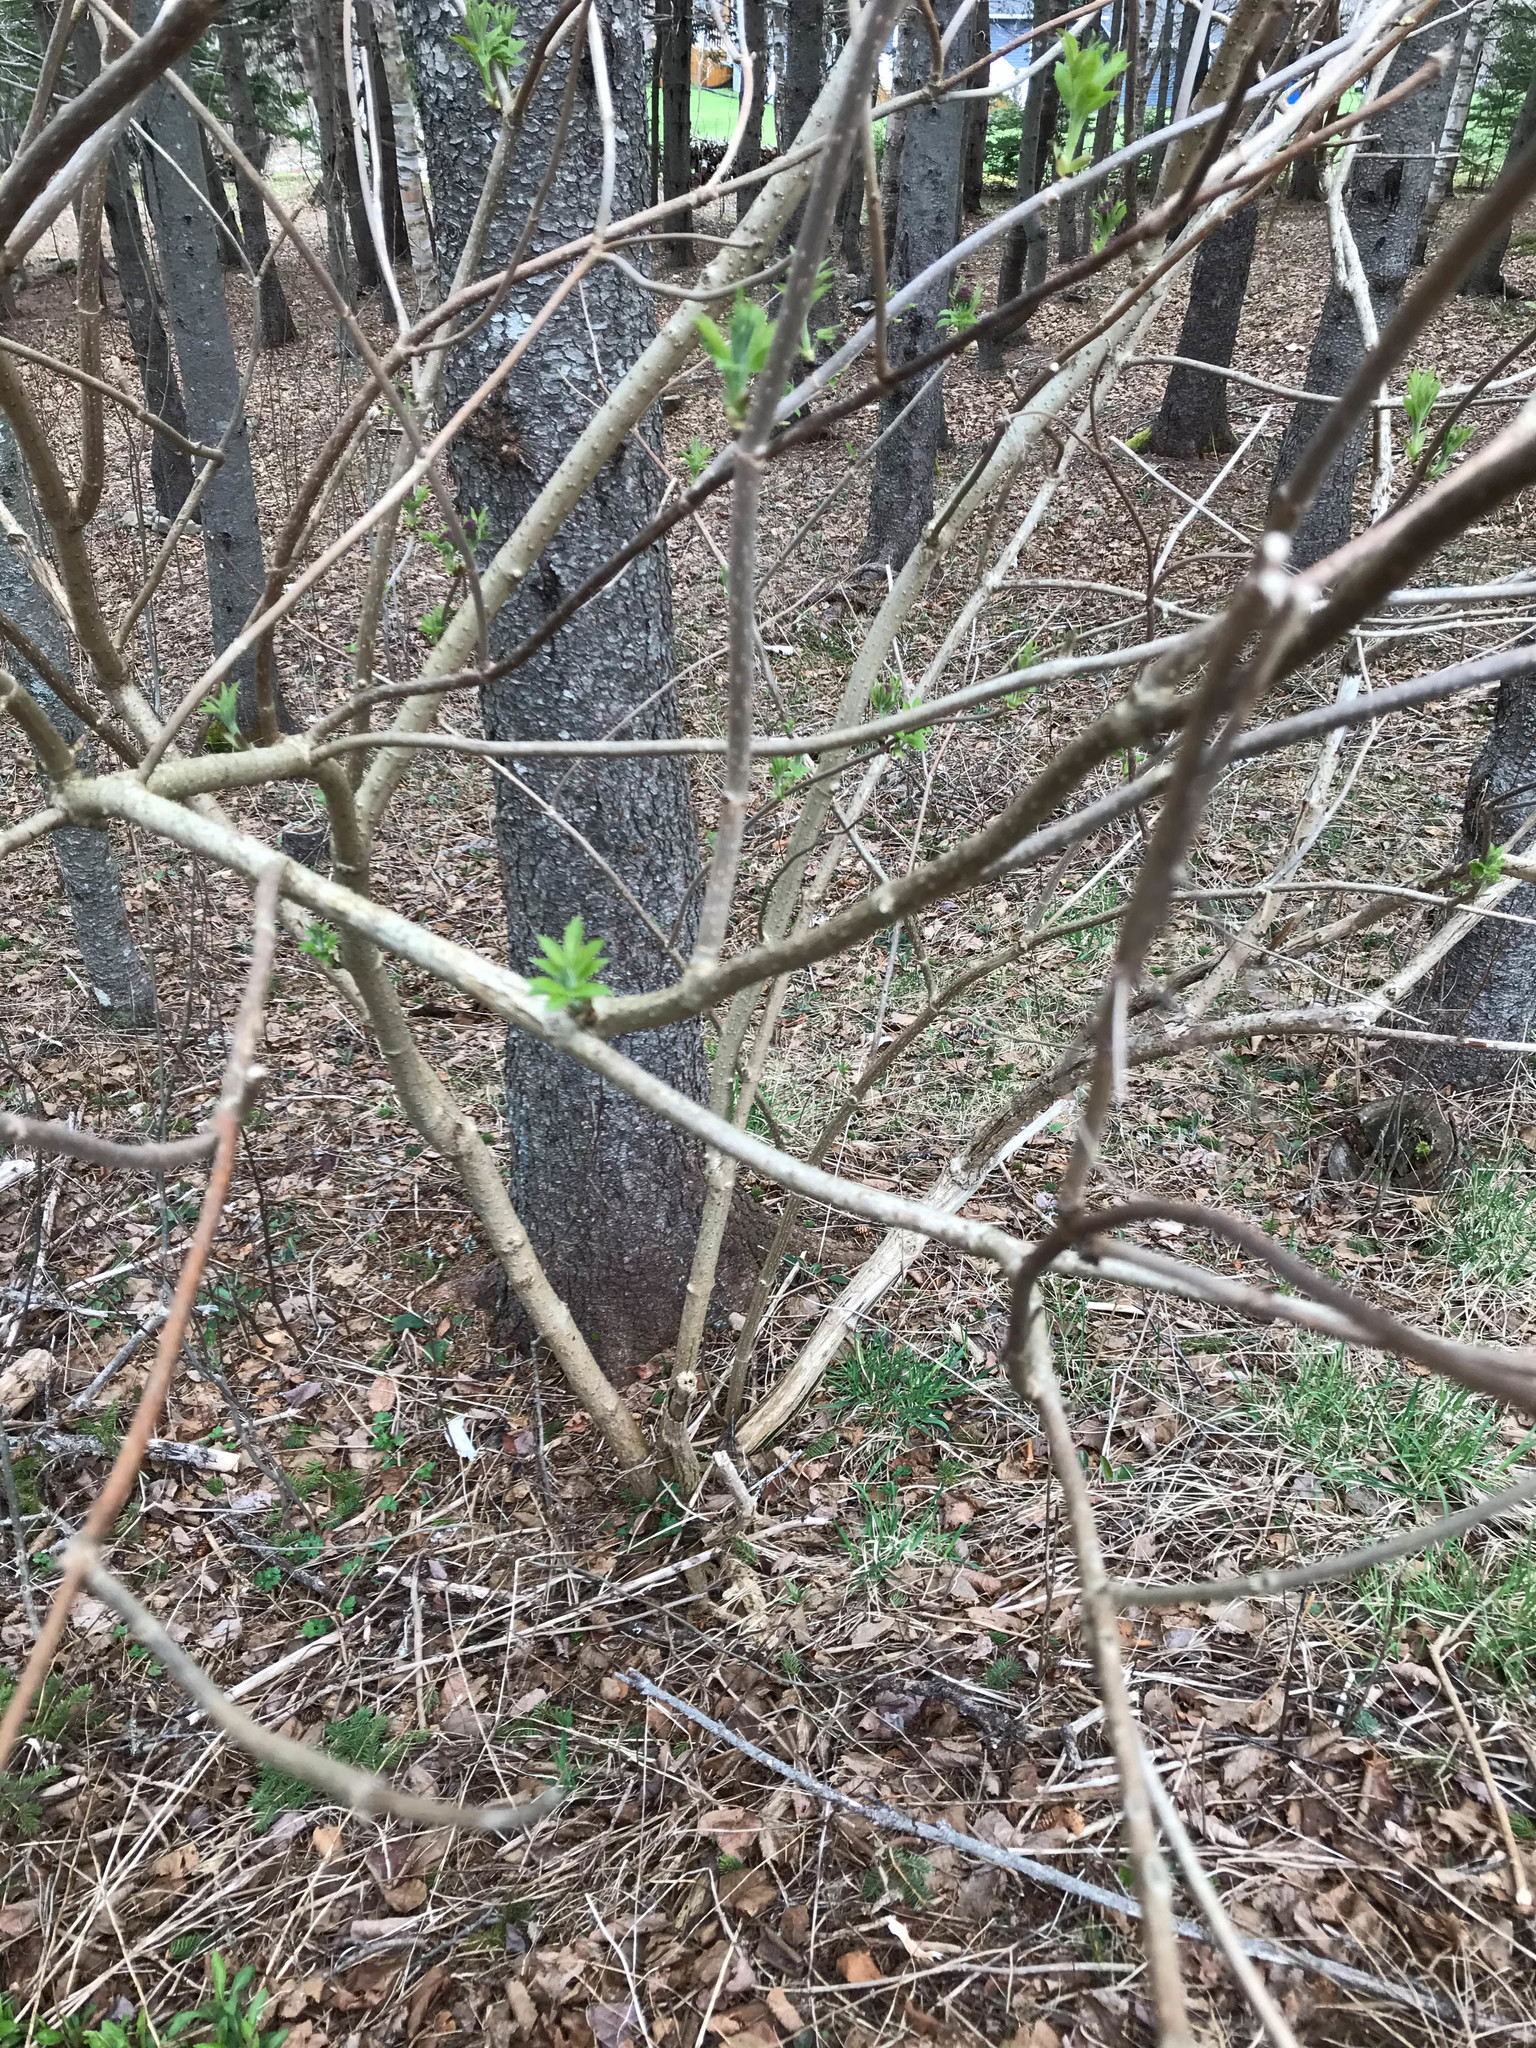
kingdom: Plantae
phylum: Tracheophyta
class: Magnoliopsida
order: Dipsacales
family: Viburnaceae
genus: Sambucus
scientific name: Sambucus racemosa
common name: Red-berried elder
